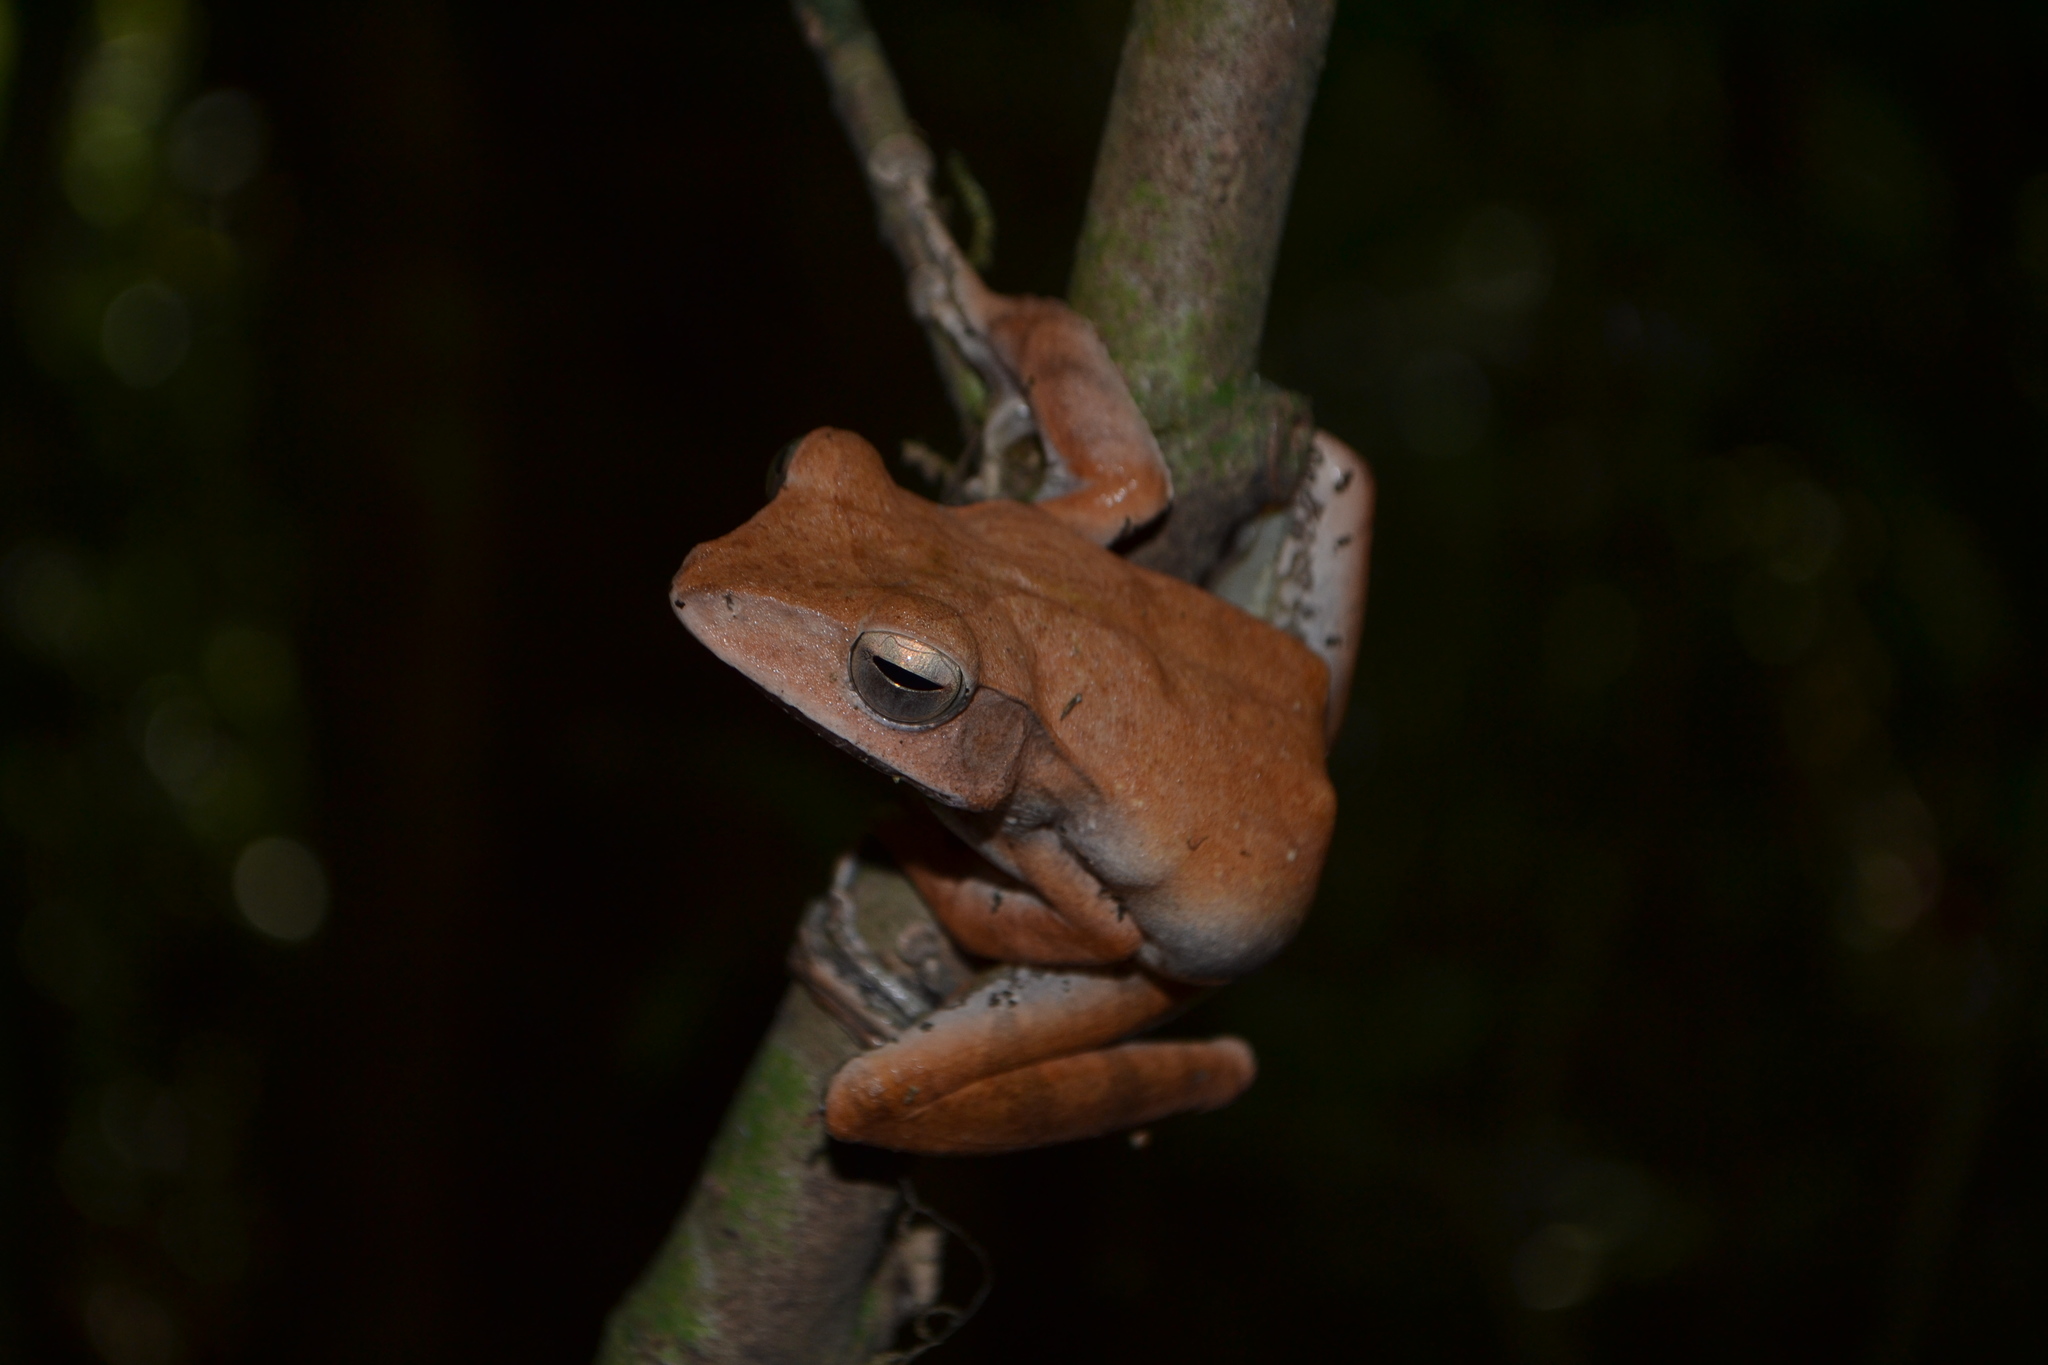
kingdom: Animalia
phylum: Chordata
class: Amphibia
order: Anura
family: Rhacophoridae
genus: Polypedates
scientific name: Polypedates occidentalis
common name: Charpa tree frog
